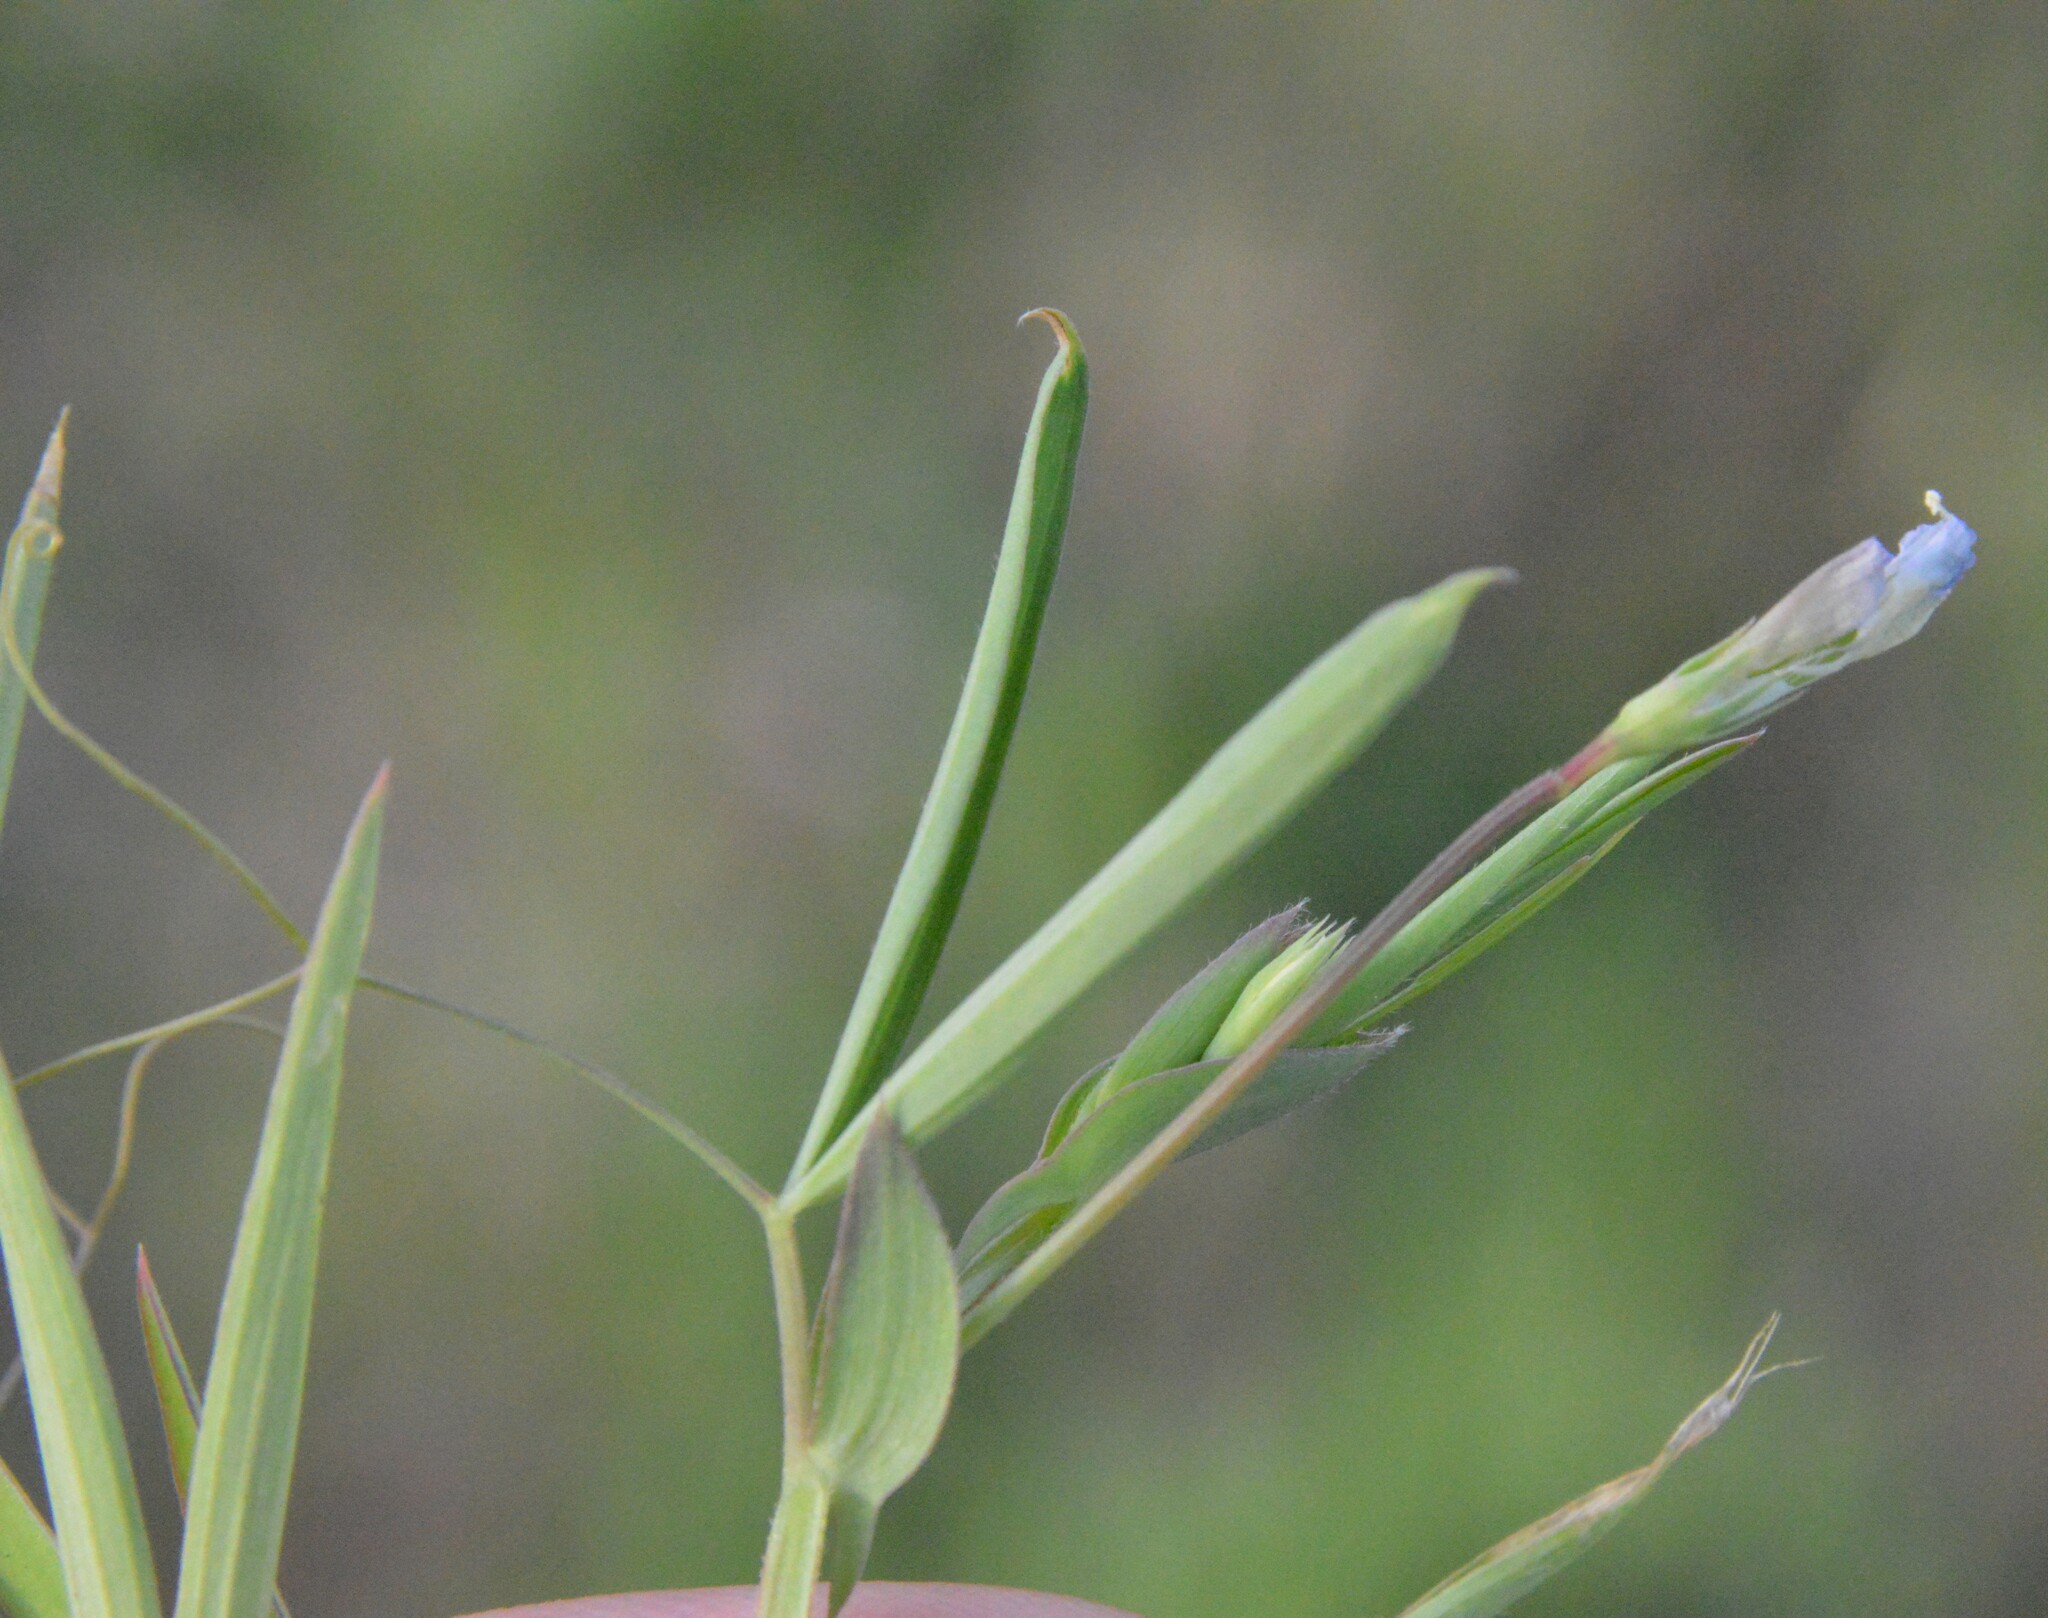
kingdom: Plantae
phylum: Tracheophyta
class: Magnoliopsida
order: Fabales
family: Fabaceae
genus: Lathyrus
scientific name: Lathyrus pusillus
